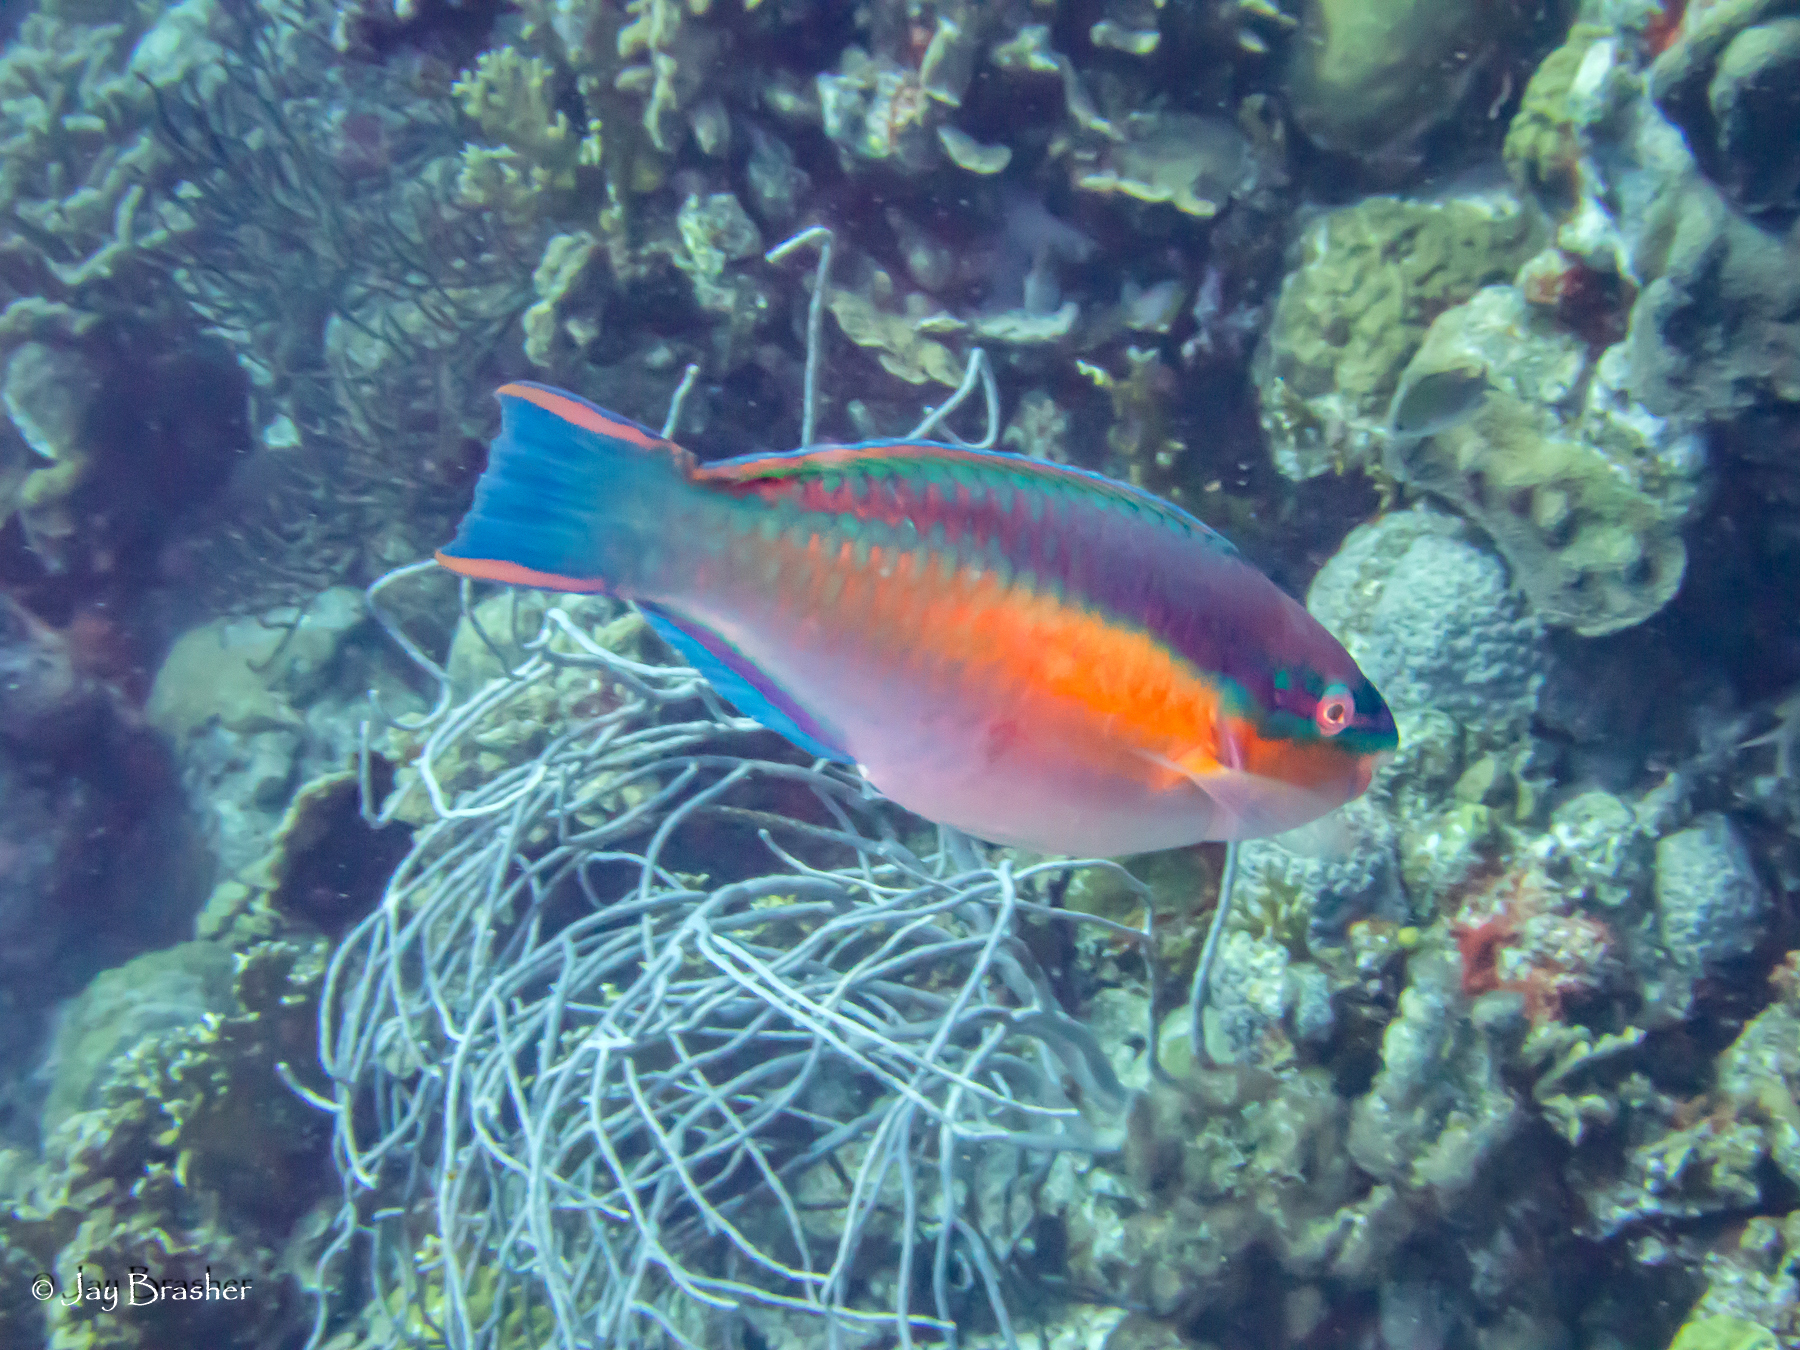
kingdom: Animalia
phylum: Chordata
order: Perciformes
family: Scaridae
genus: Scarus
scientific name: Scarus taeniopterus
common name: Princess parrotfish
